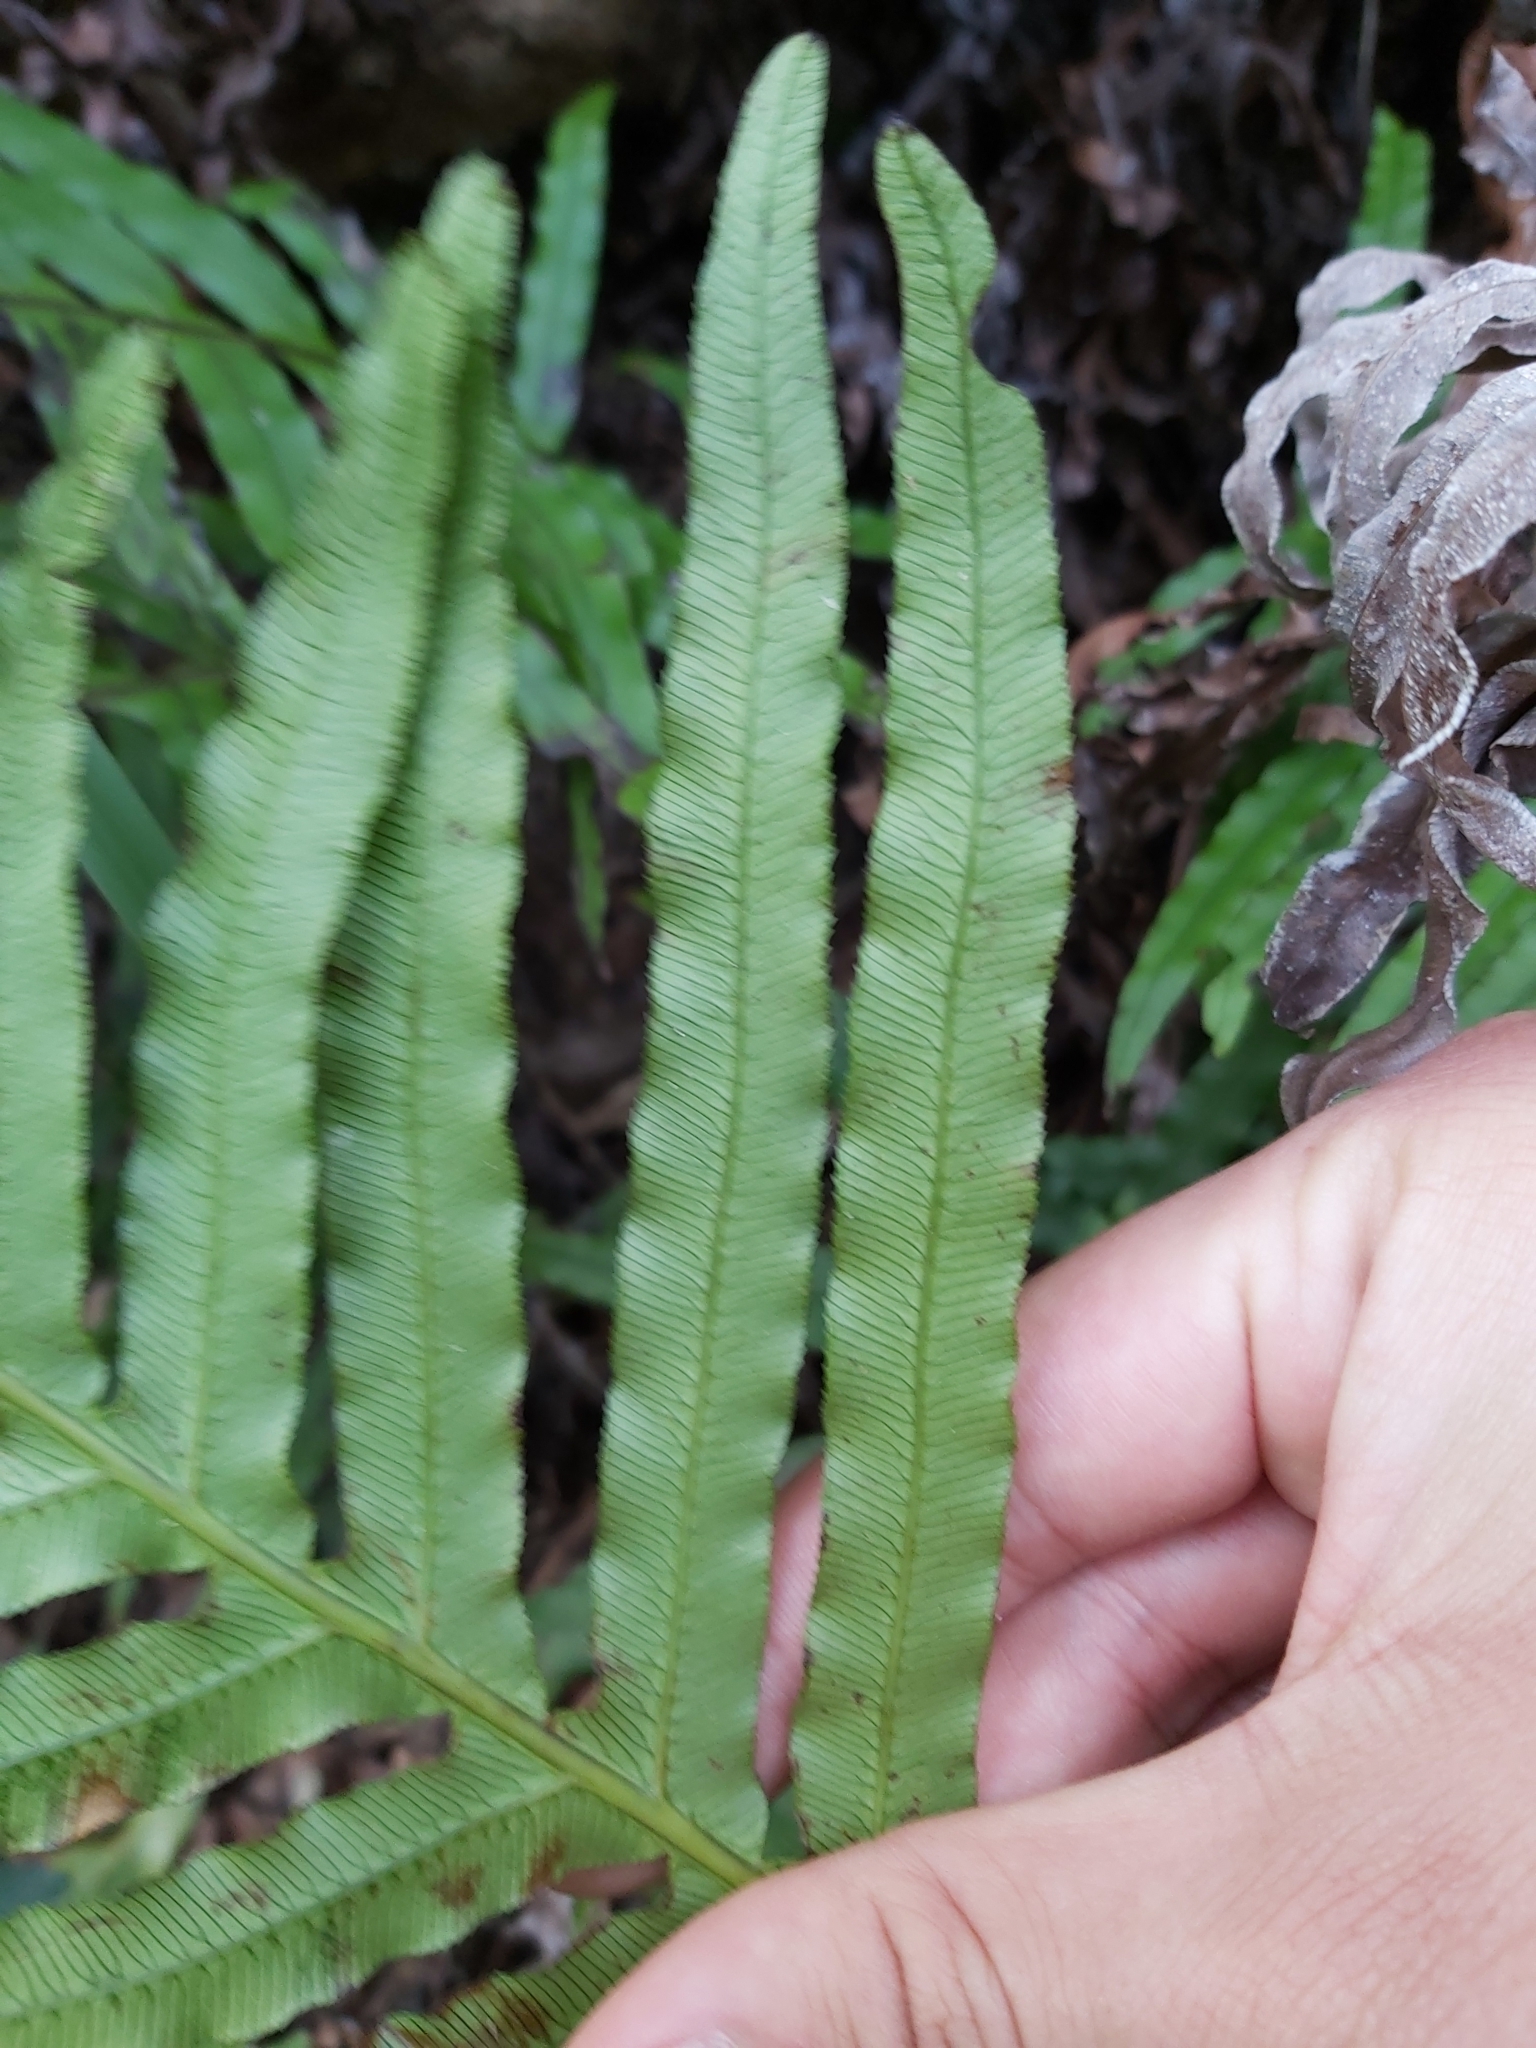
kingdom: Plantae
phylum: Tracheophyta
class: Polypodiopsida
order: Polypodiales
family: Blechnaceae
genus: Oceaniopteris
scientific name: Oceaniopteris cartilaginea
